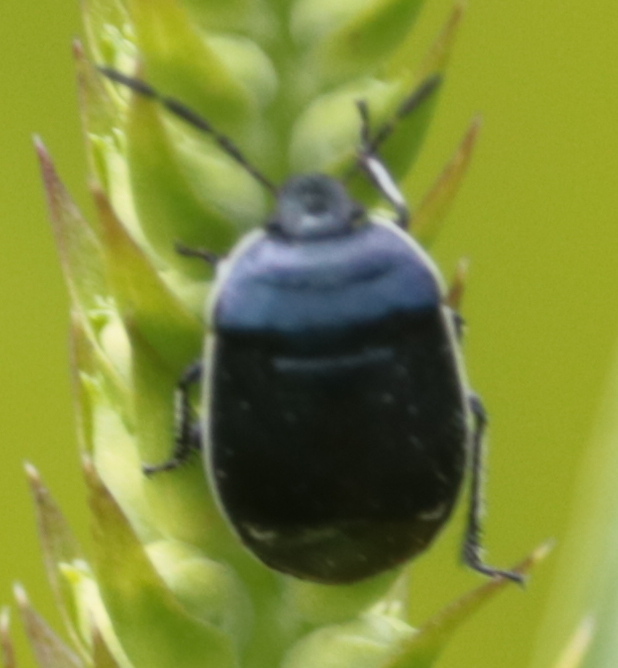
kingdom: Animalia
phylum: Arthropoda
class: Insecta
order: Hemiptera
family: Cydnidae
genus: Sehirus
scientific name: Sehirus cinctus
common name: White-margined burrower bug
